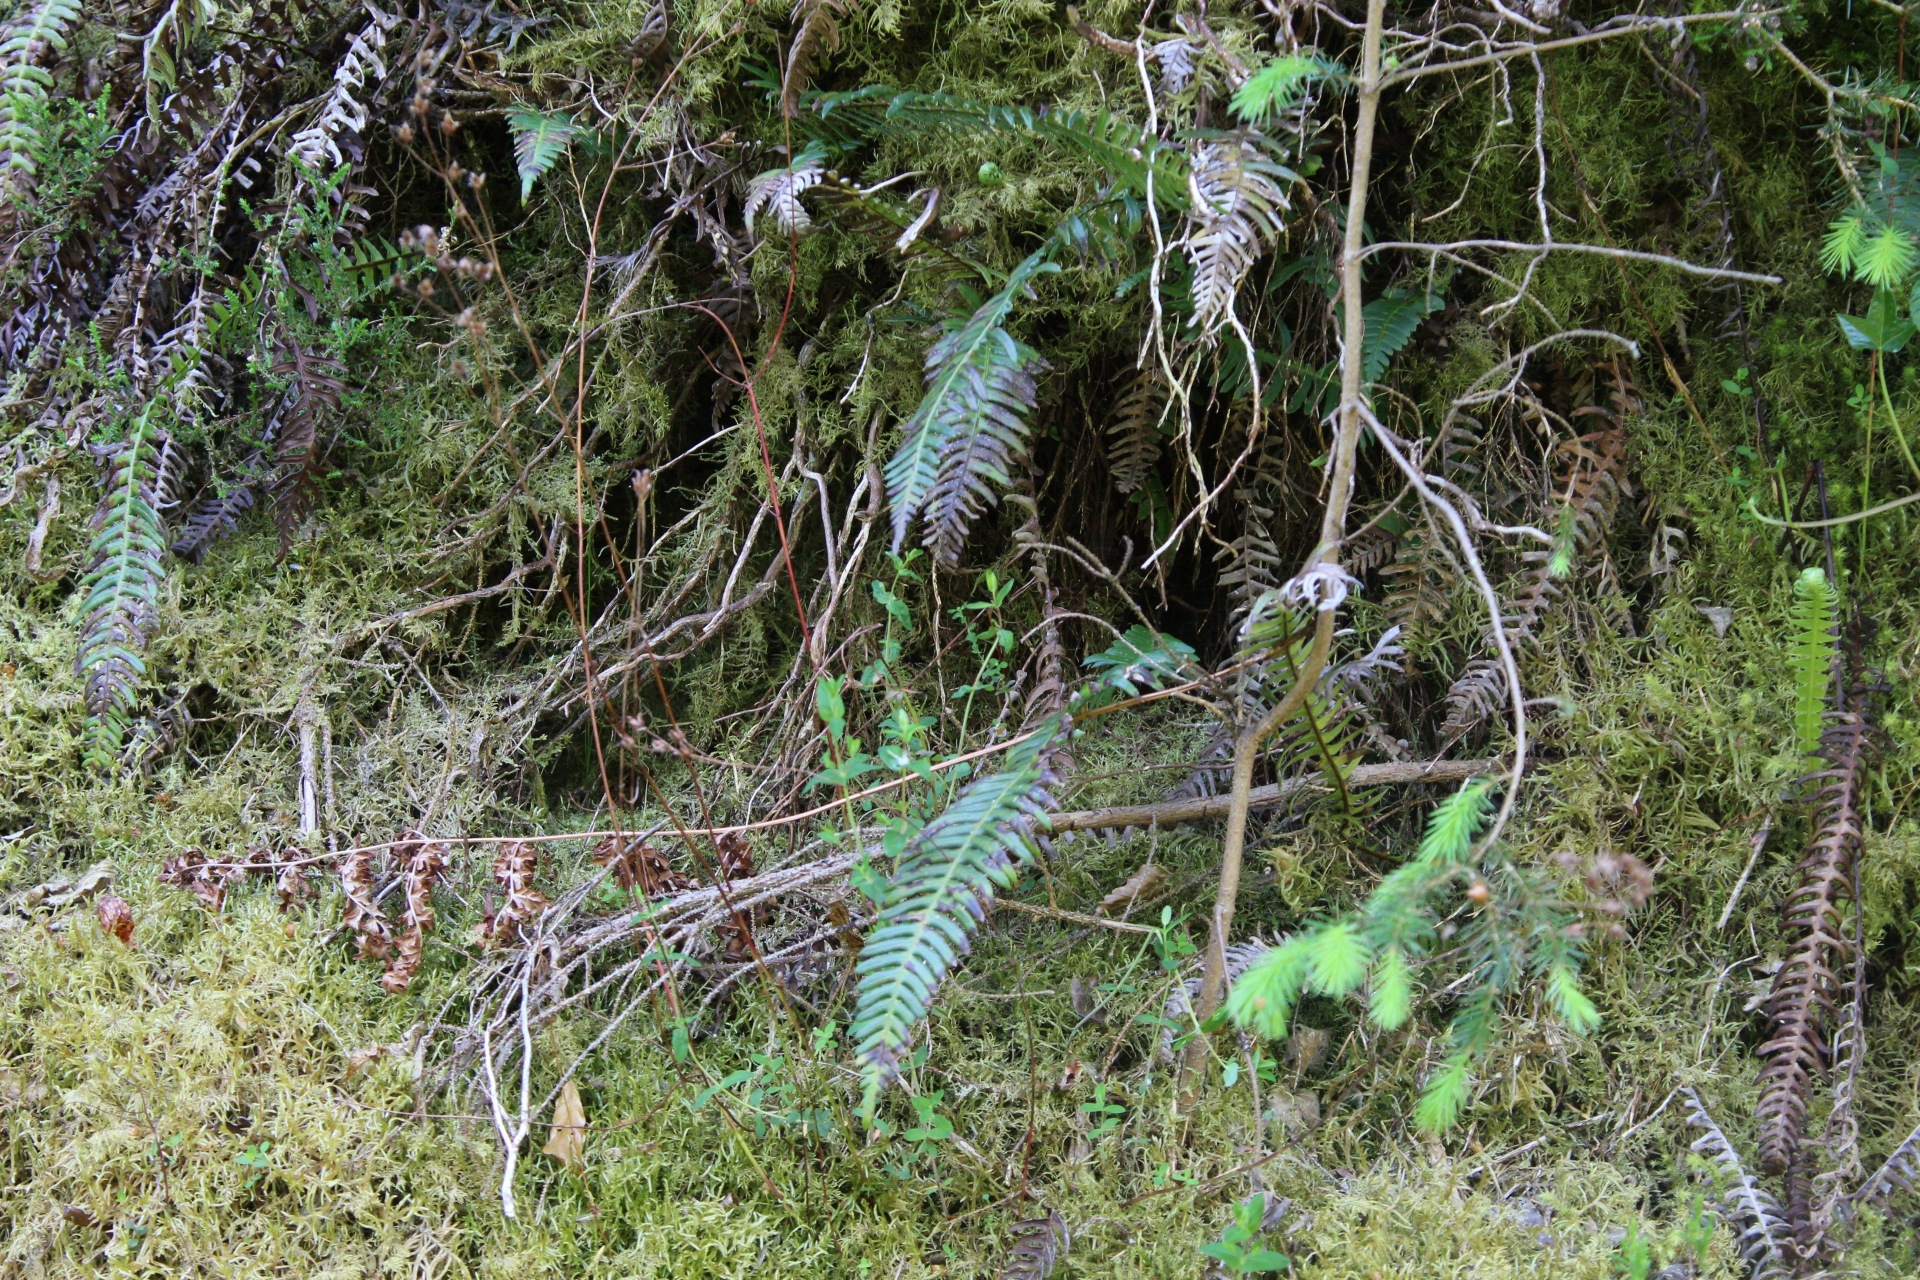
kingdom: Plantae
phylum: Tracheophyta
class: Polypodiopsida
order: Polypodiales
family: Blechnaceae
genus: Struthiopteris
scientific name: Struthiopteris spicant
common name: Deer fern
